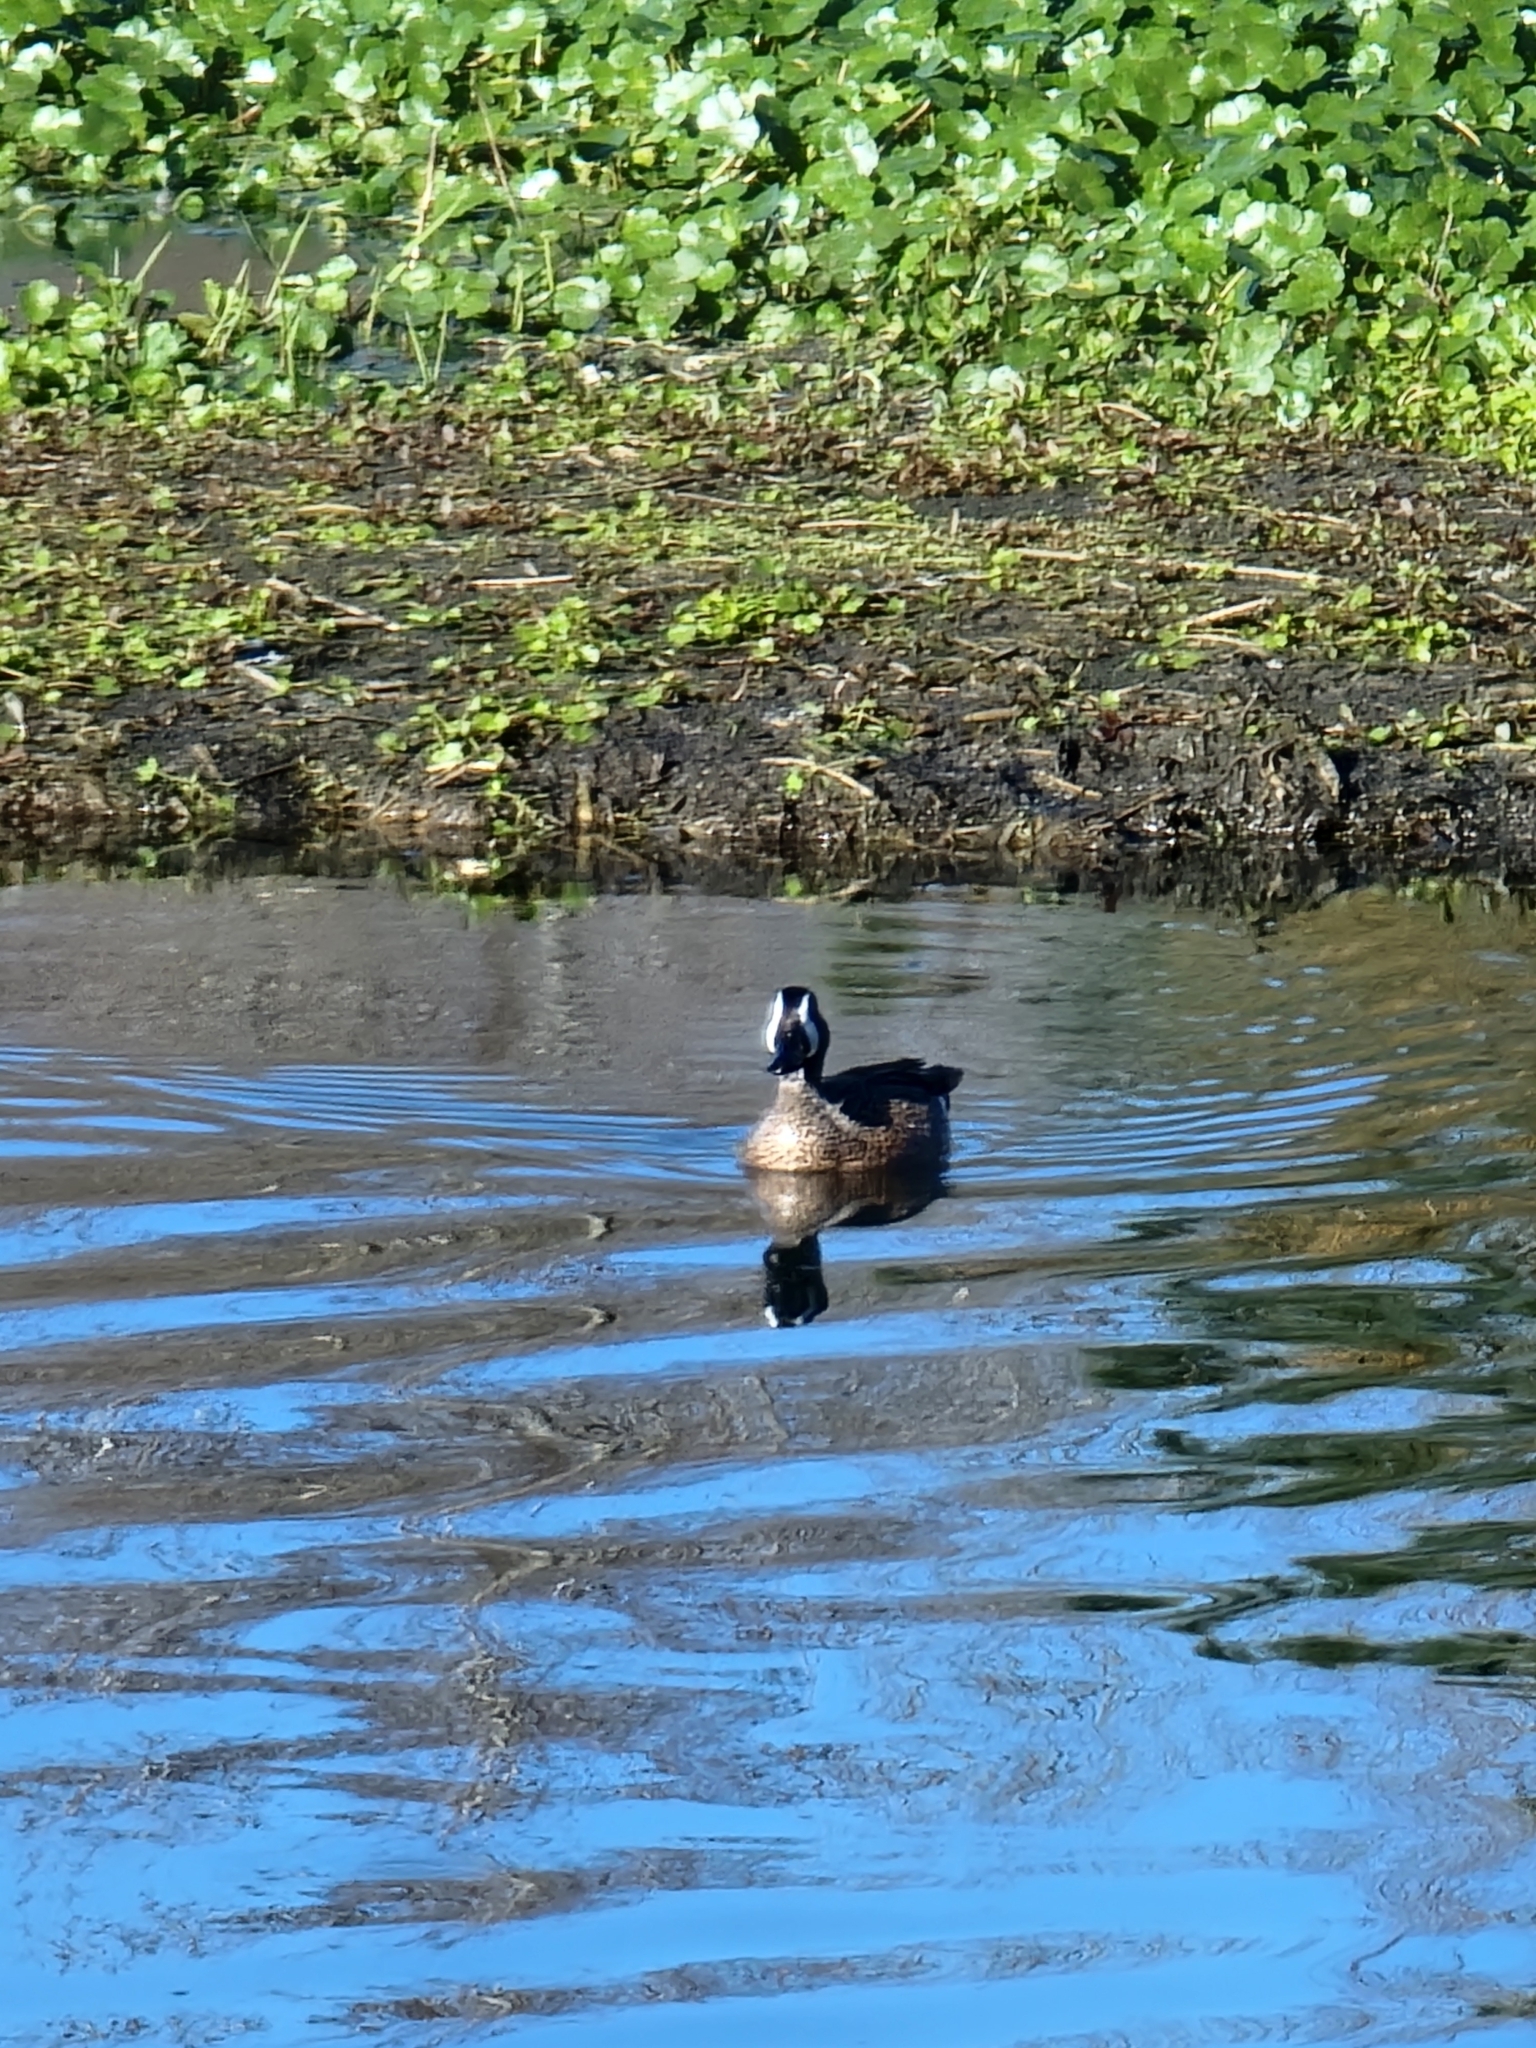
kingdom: Animalia
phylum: Chordata
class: Aves
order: Anseriformes
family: Anatidae
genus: Spatula
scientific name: Spatula discors
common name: Blue-winged teal
